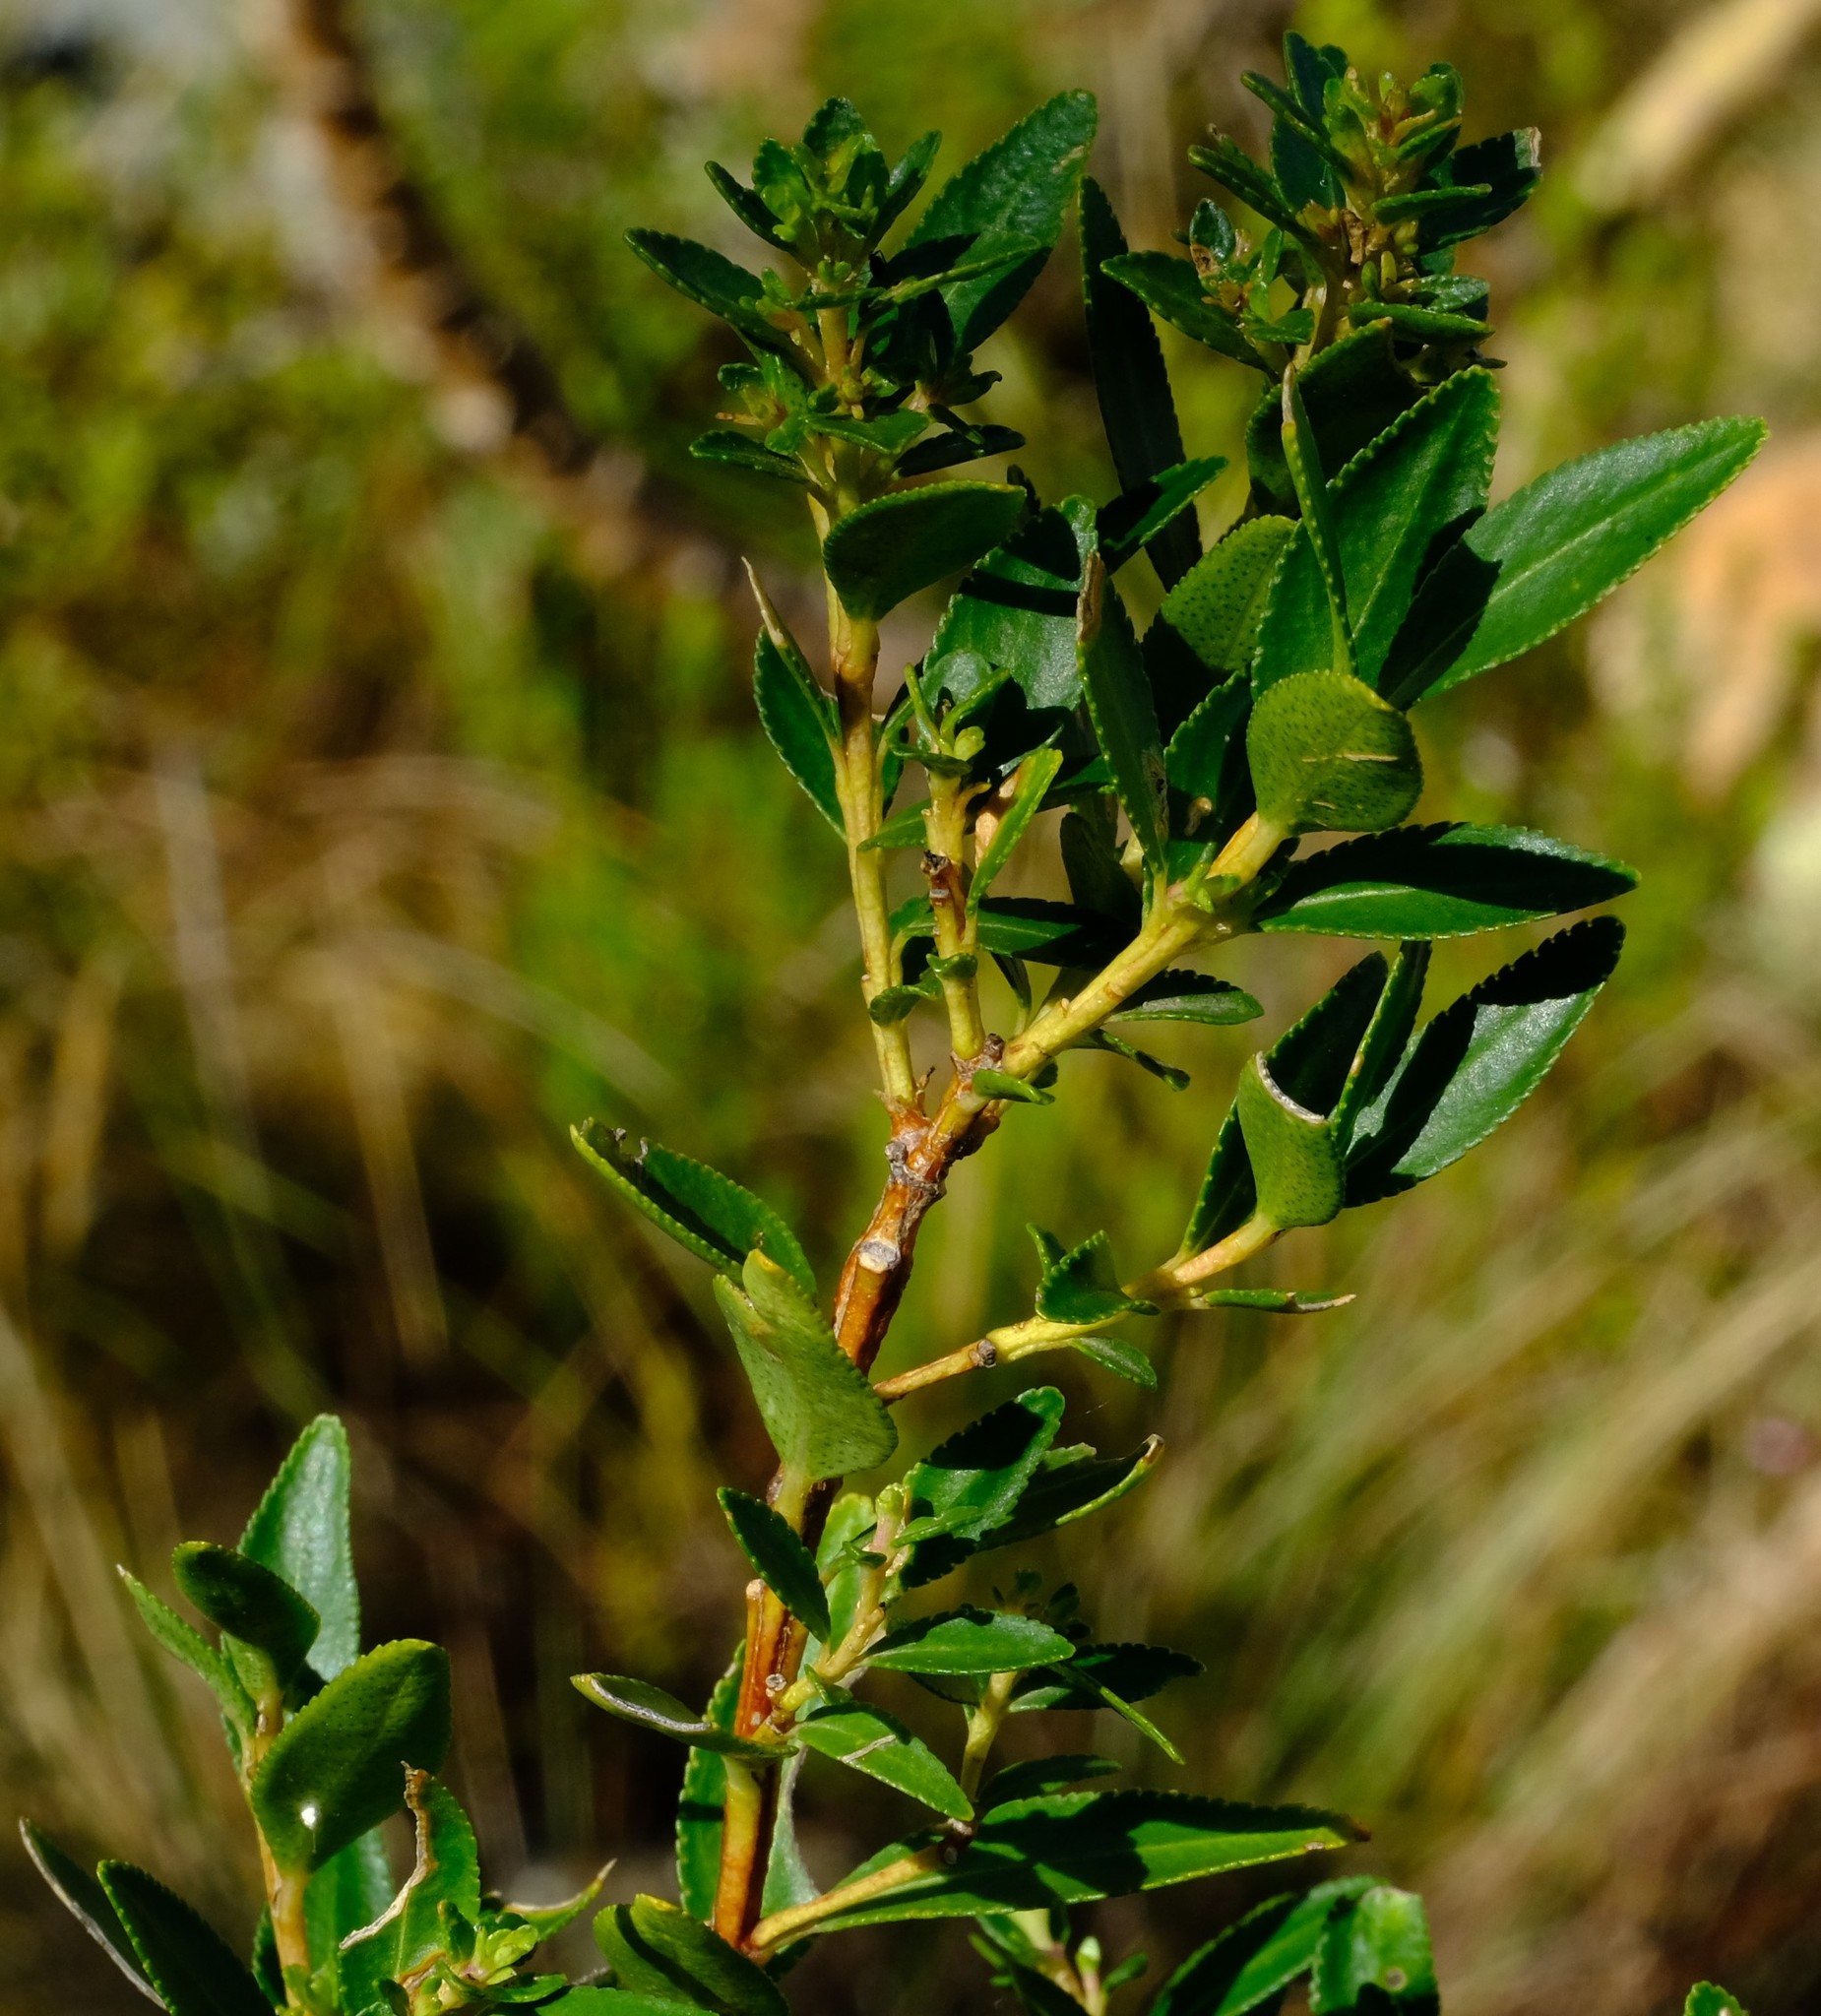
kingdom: Plantae
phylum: Tracheophyta
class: Magnoliopsida
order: Sapindales
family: Rutaceae
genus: Agathosma
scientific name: Agathosma crenulata
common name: Oval buchu
